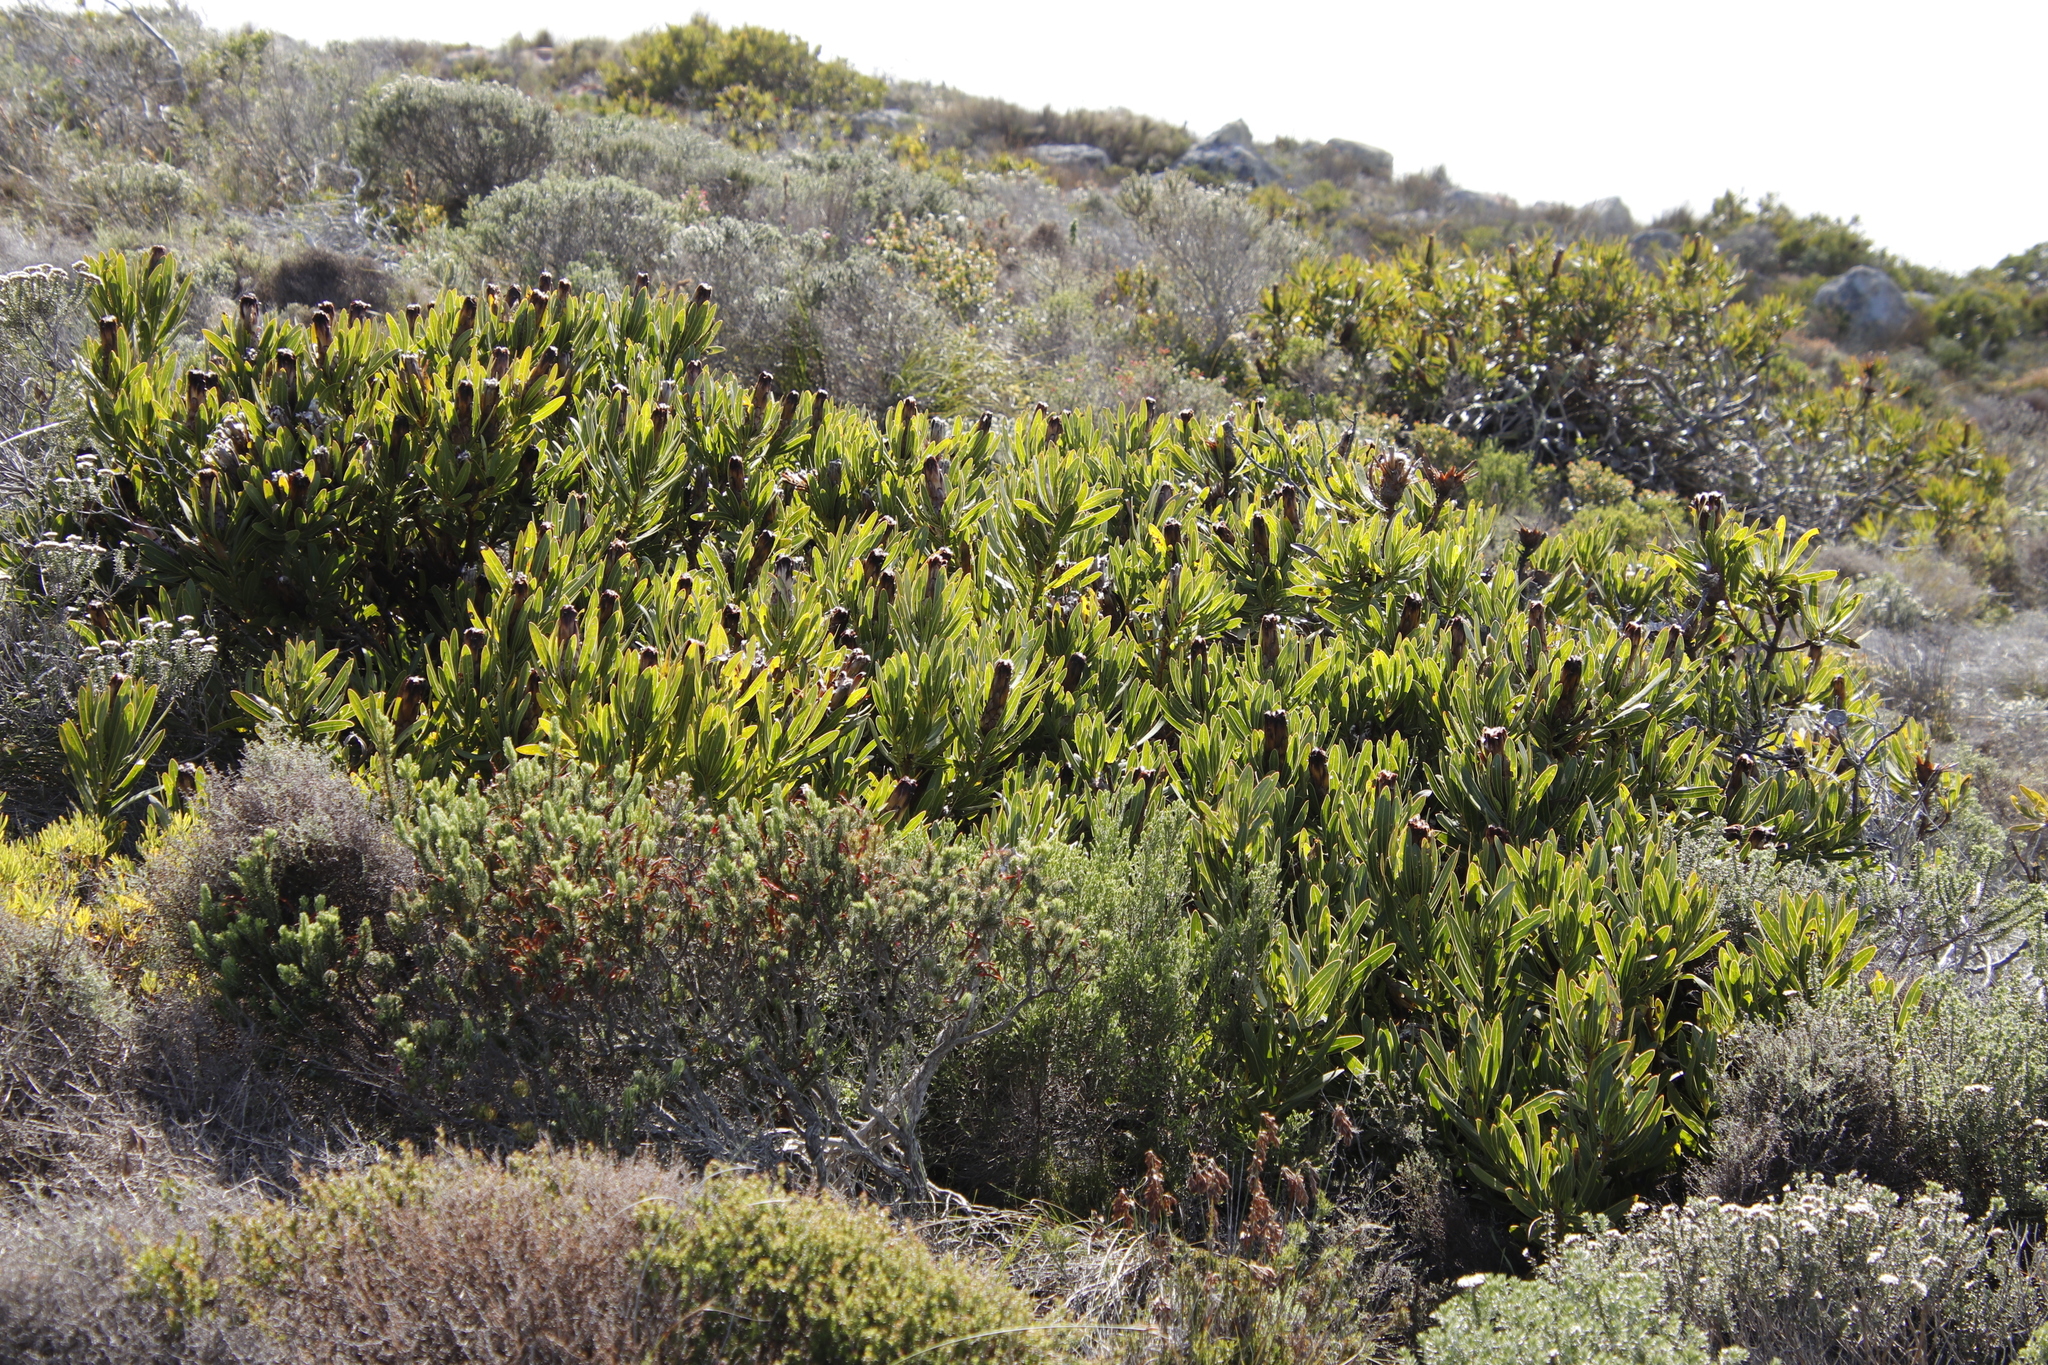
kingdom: Plantae
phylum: Tracheophyta
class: Magnoliopsida
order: Proteales
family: Proteaceae
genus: Protea
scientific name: Protea lepidocarpodendron
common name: Black-bearded protea
